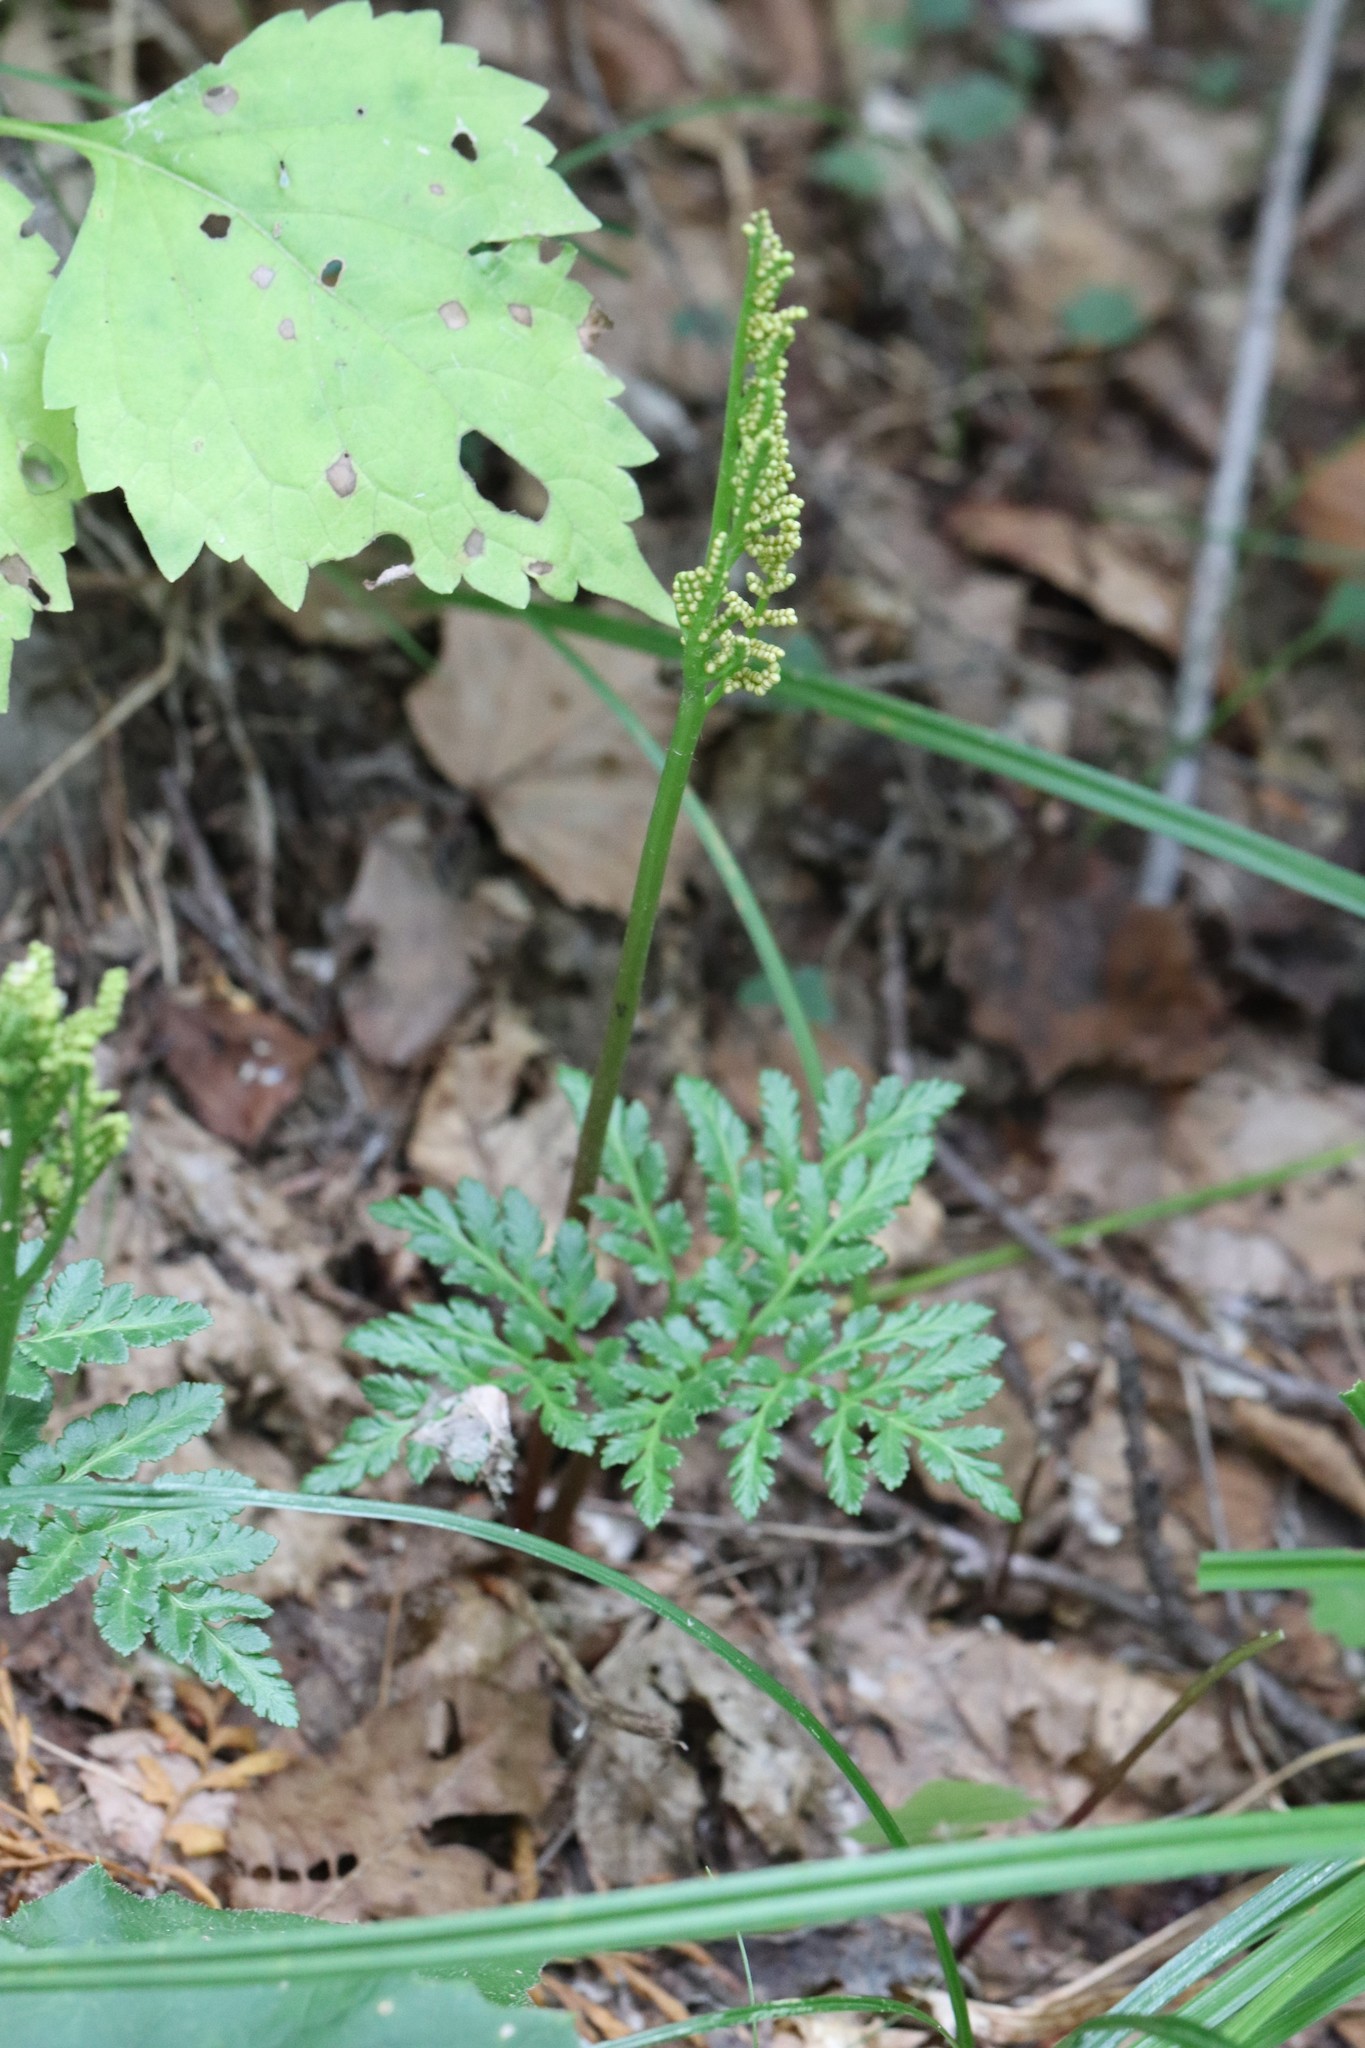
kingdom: Plantae
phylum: Tracheophyta
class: Polypodiopsida
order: Ophioglossales
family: Ophioglossaceae
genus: Sceptridium
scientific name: Sceptridium robustum
